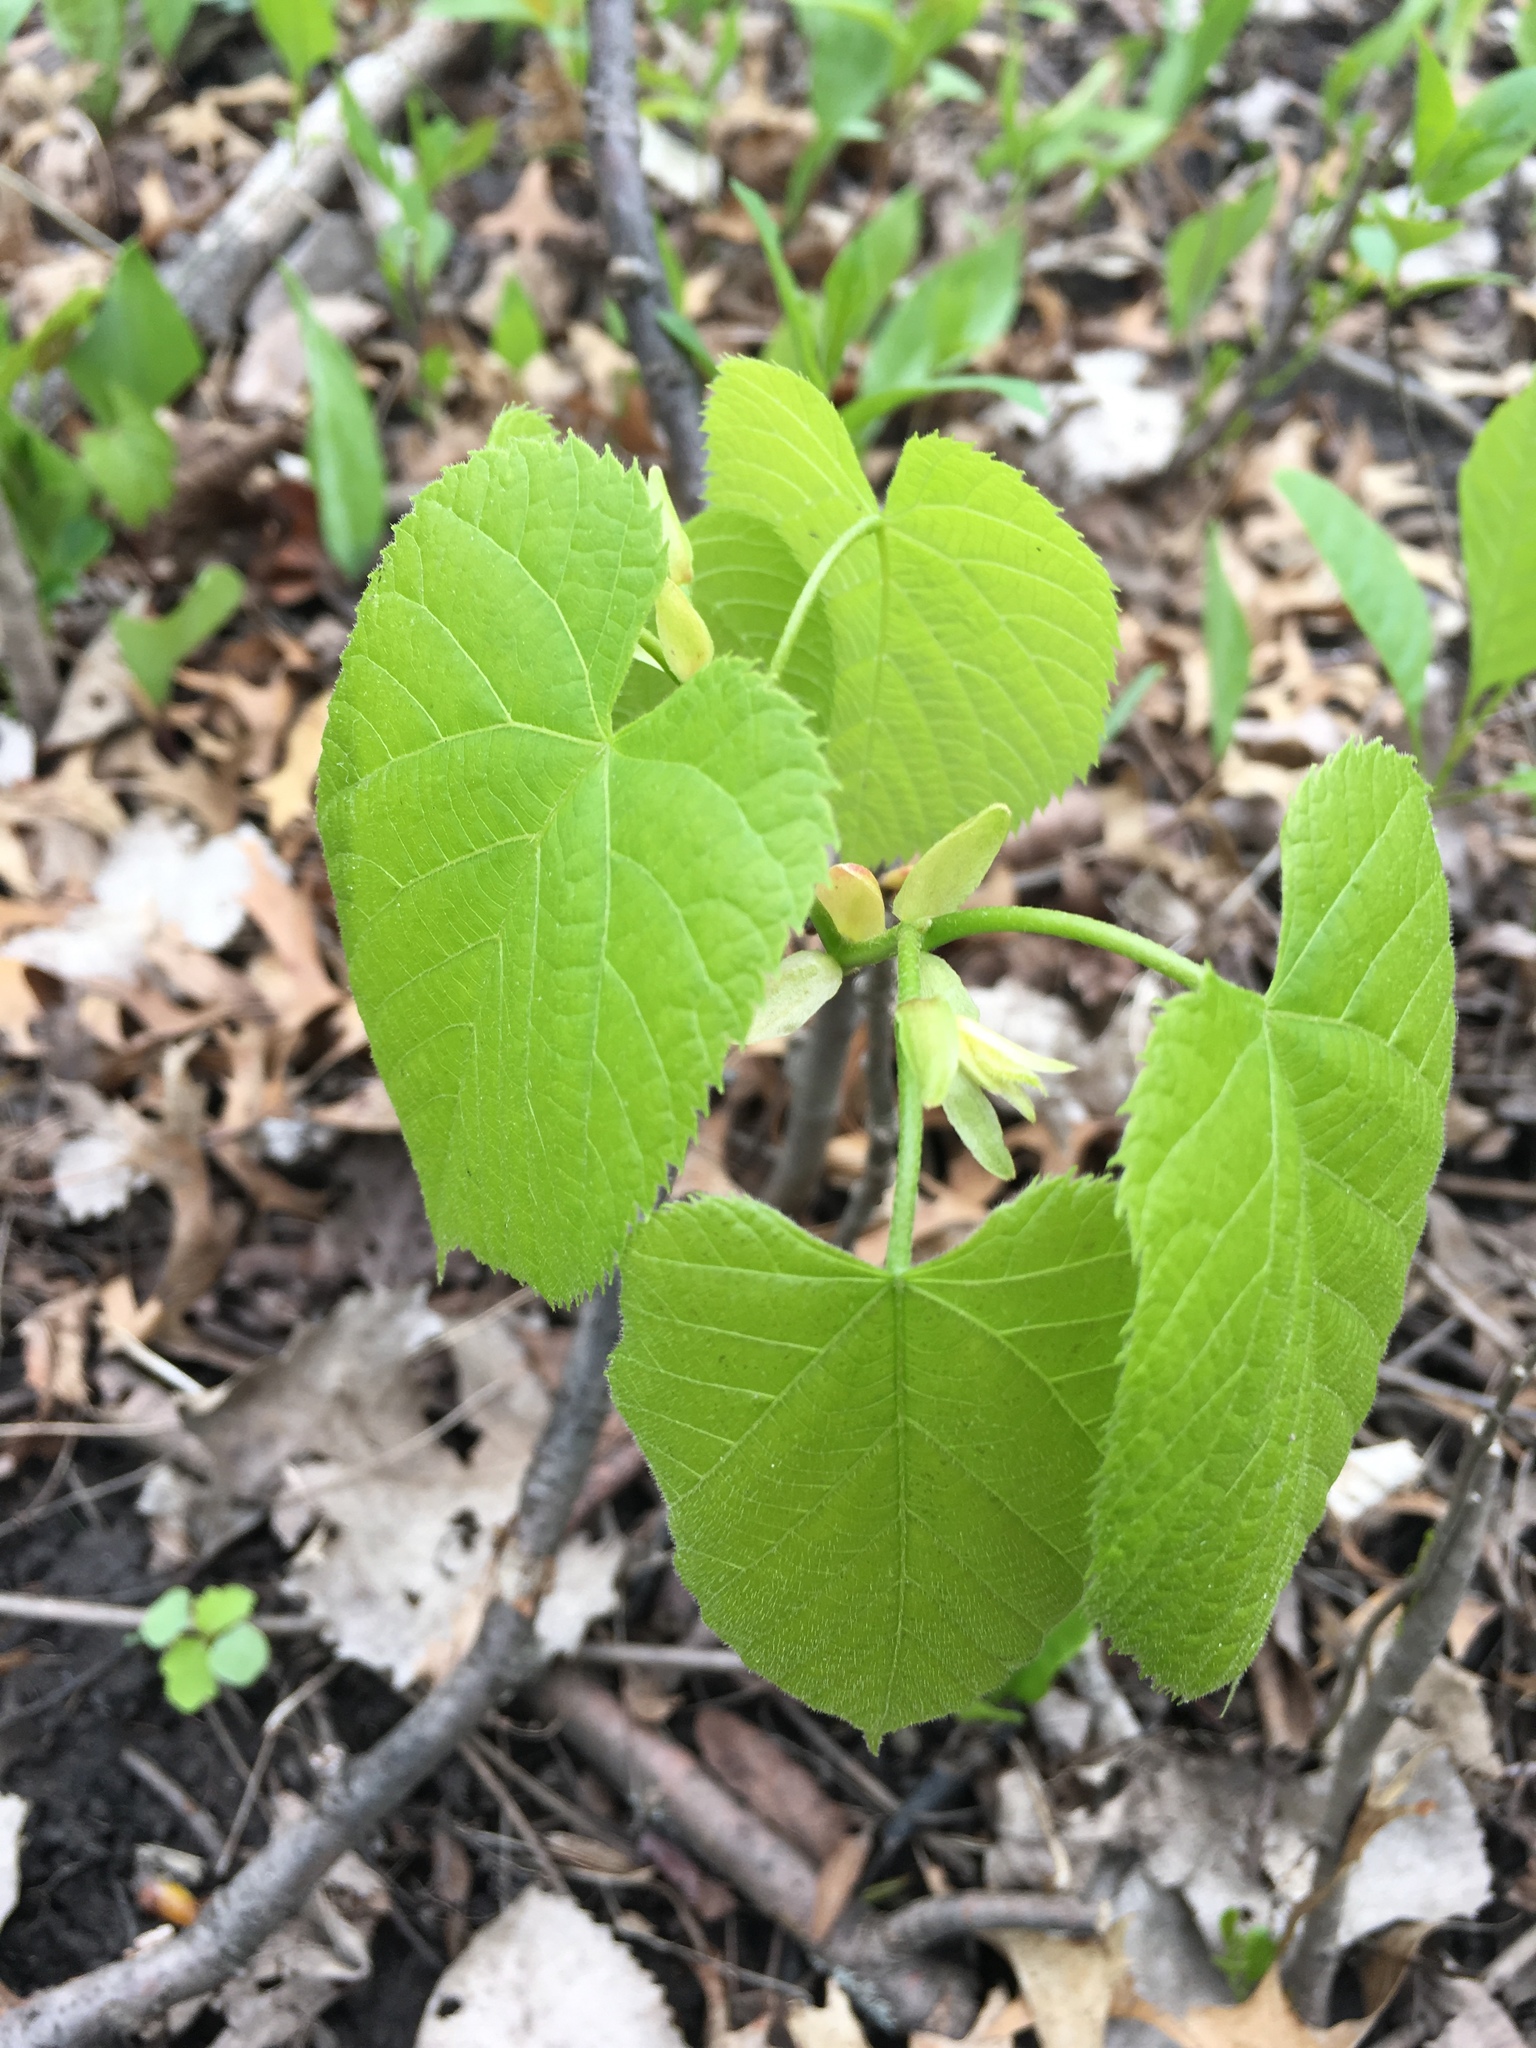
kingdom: Plantae
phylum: Tracheophyta
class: Magnoliopsida
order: Malvales
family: Malvaceae
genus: Tilia
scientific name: Tilia americana
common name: Basswood
